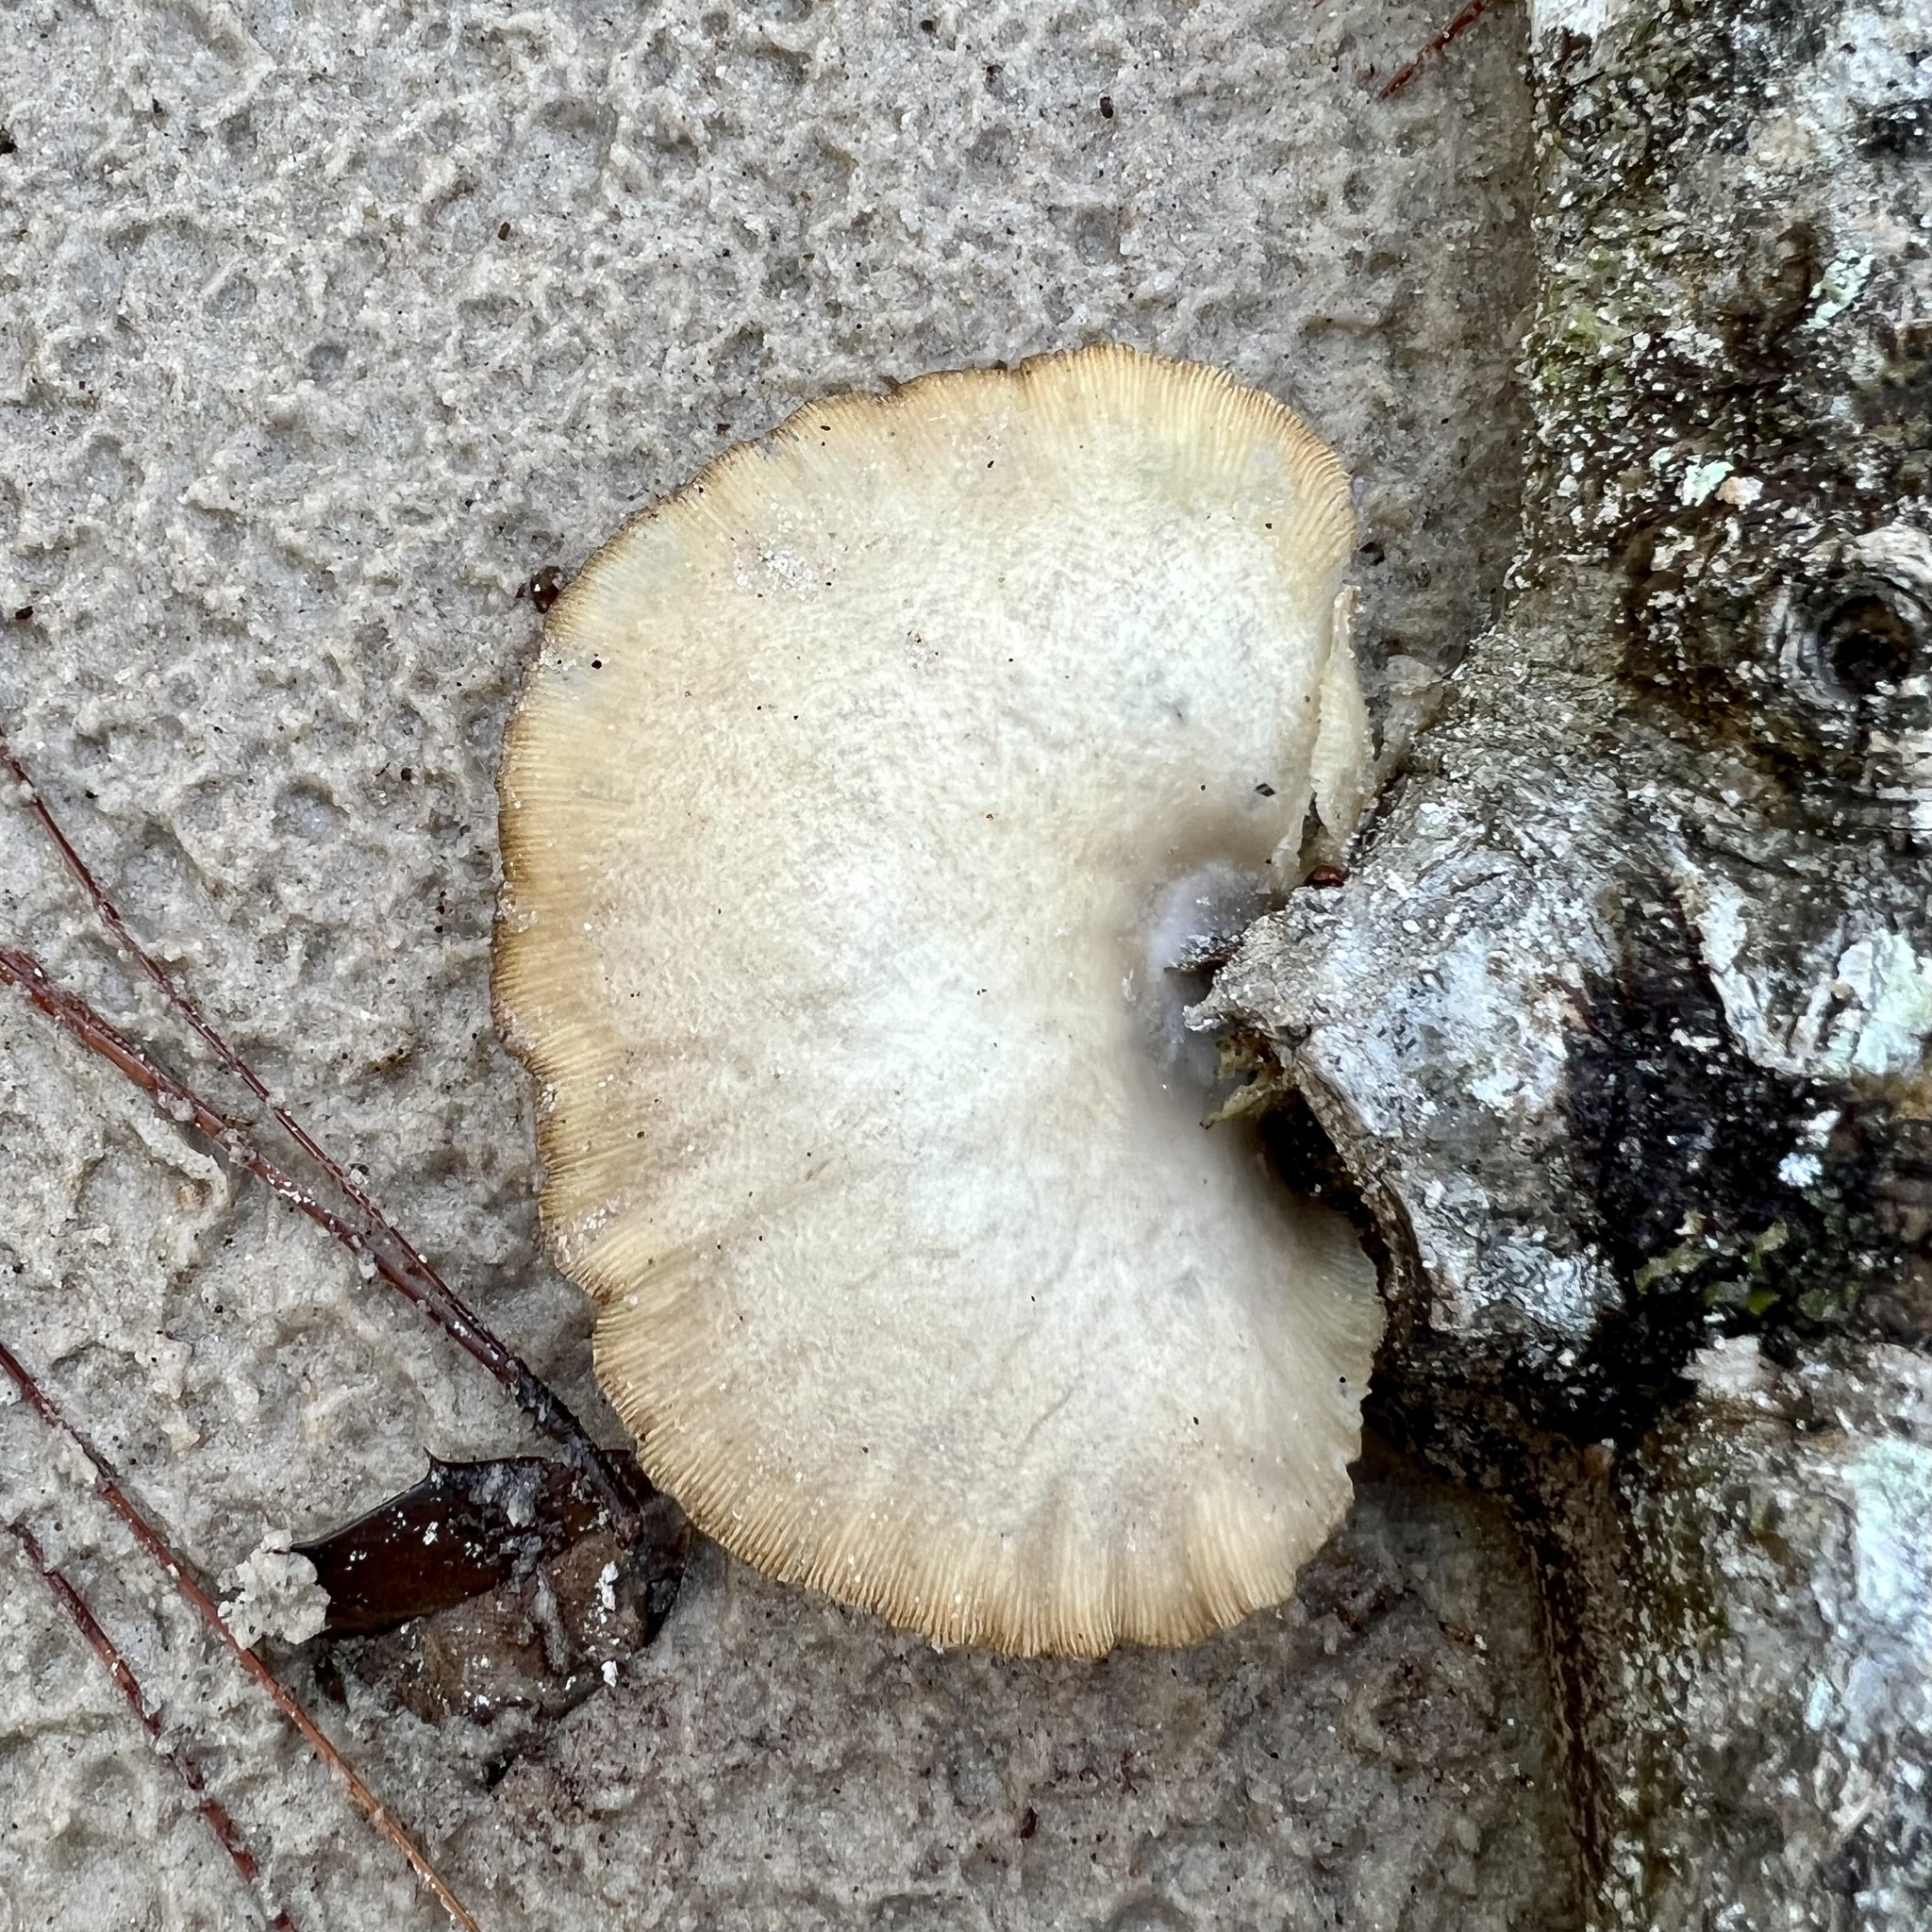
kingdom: Fungi
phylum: Basidiomycota
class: Agaricomycetes
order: Polyporales
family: Panaceae
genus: Panus
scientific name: Panus neostrigosus
